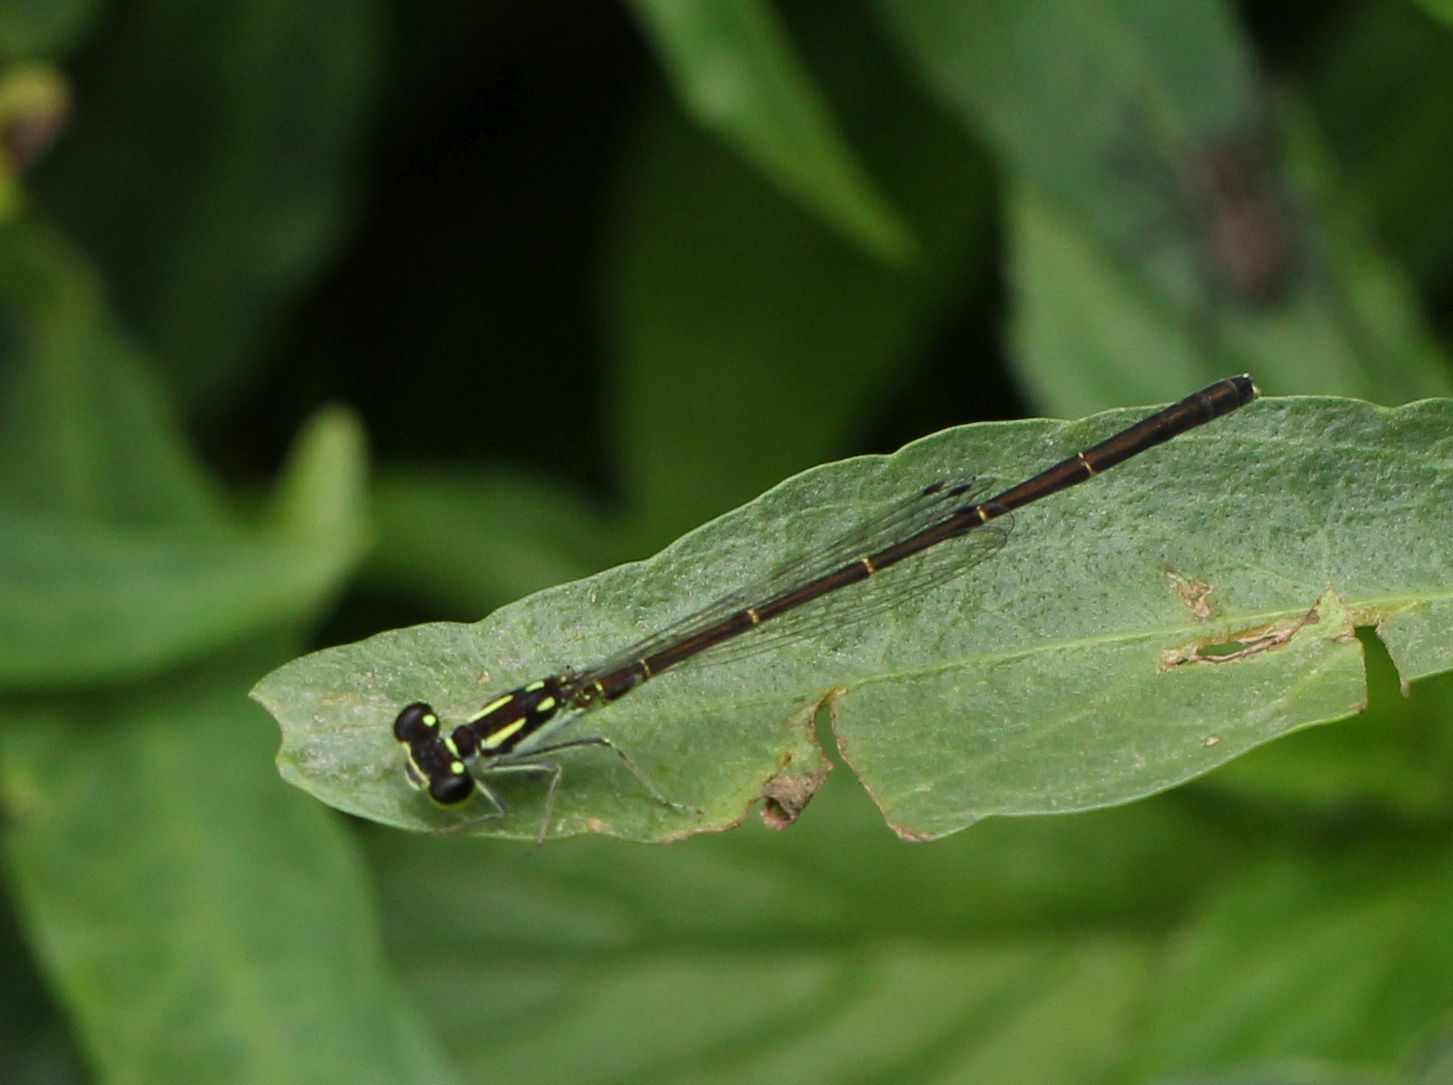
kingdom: Animalia
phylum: Arthropoda
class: Insecta
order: Odonata
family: Coenagrionidae
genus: Ischnura
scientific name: Ischnura posita
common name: Fragile forktail
